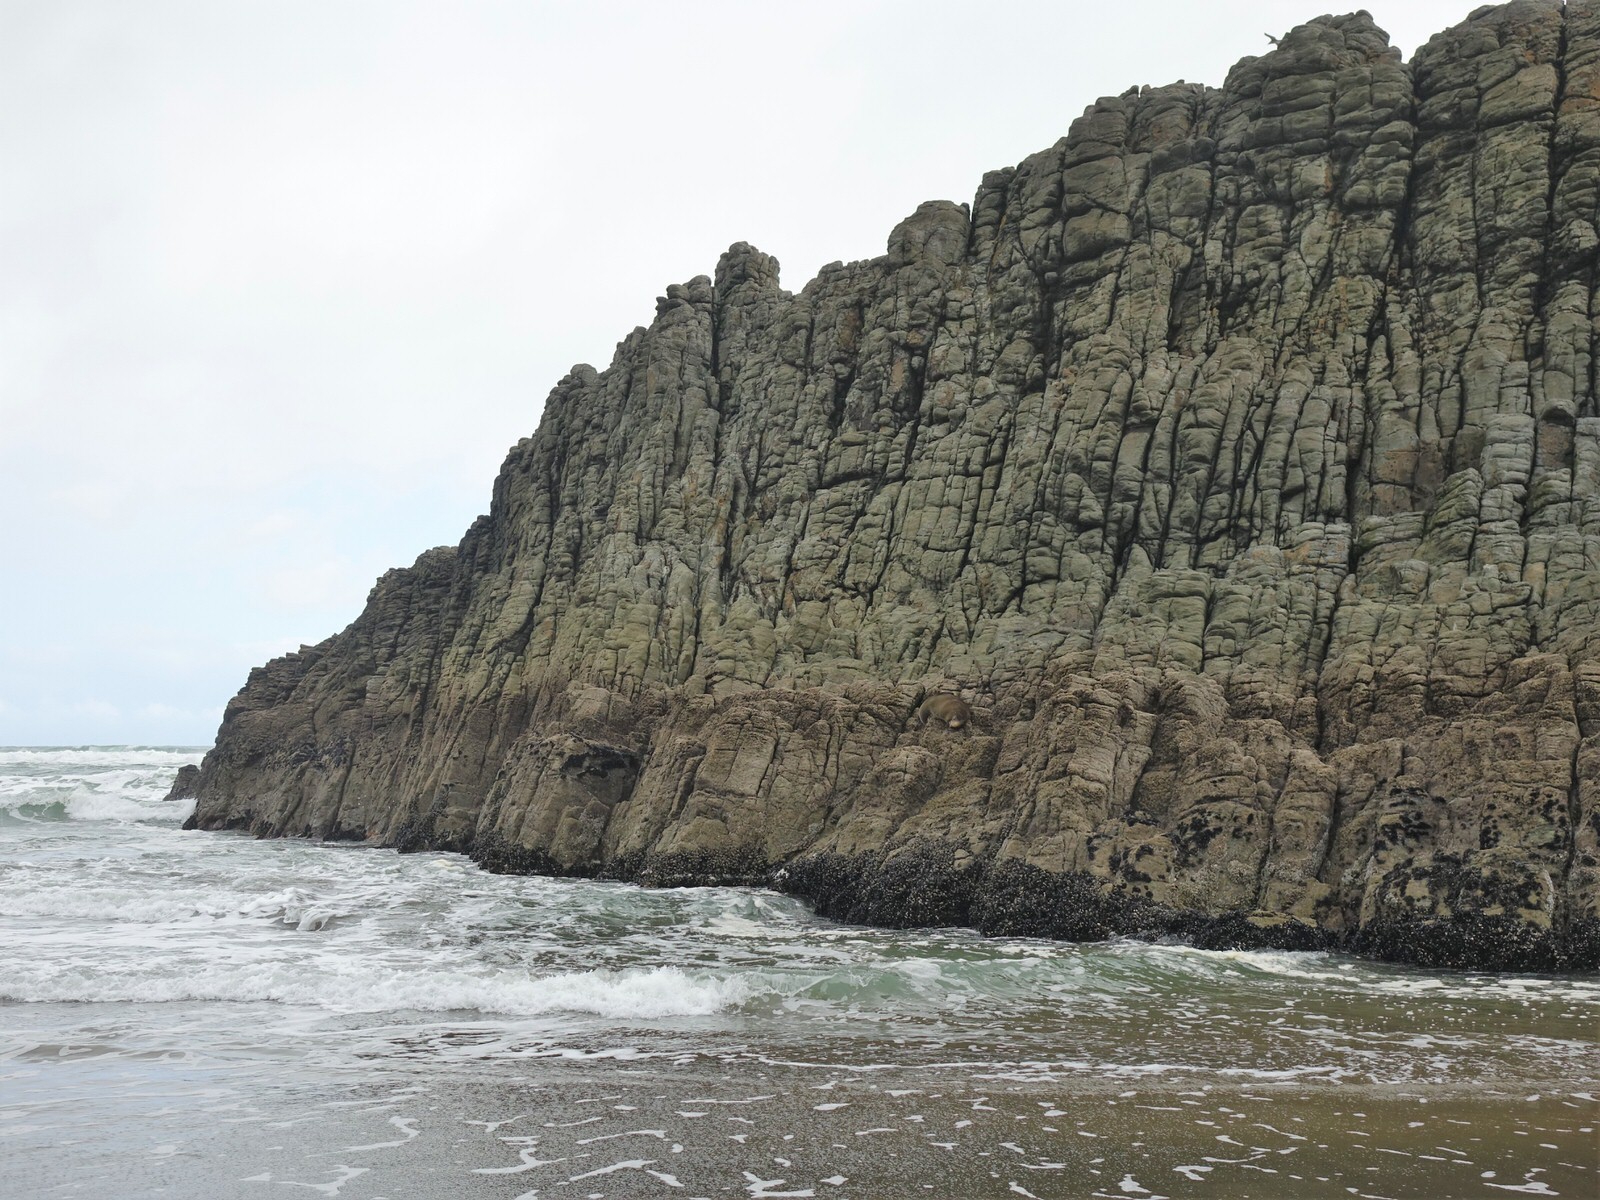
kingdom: Animalia
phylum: Chordata
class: Mammalia
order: Carnivora
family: Otariidae
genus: Arctocephalus
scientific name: Arctocephalus forsteri
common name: New zealand fur seal
